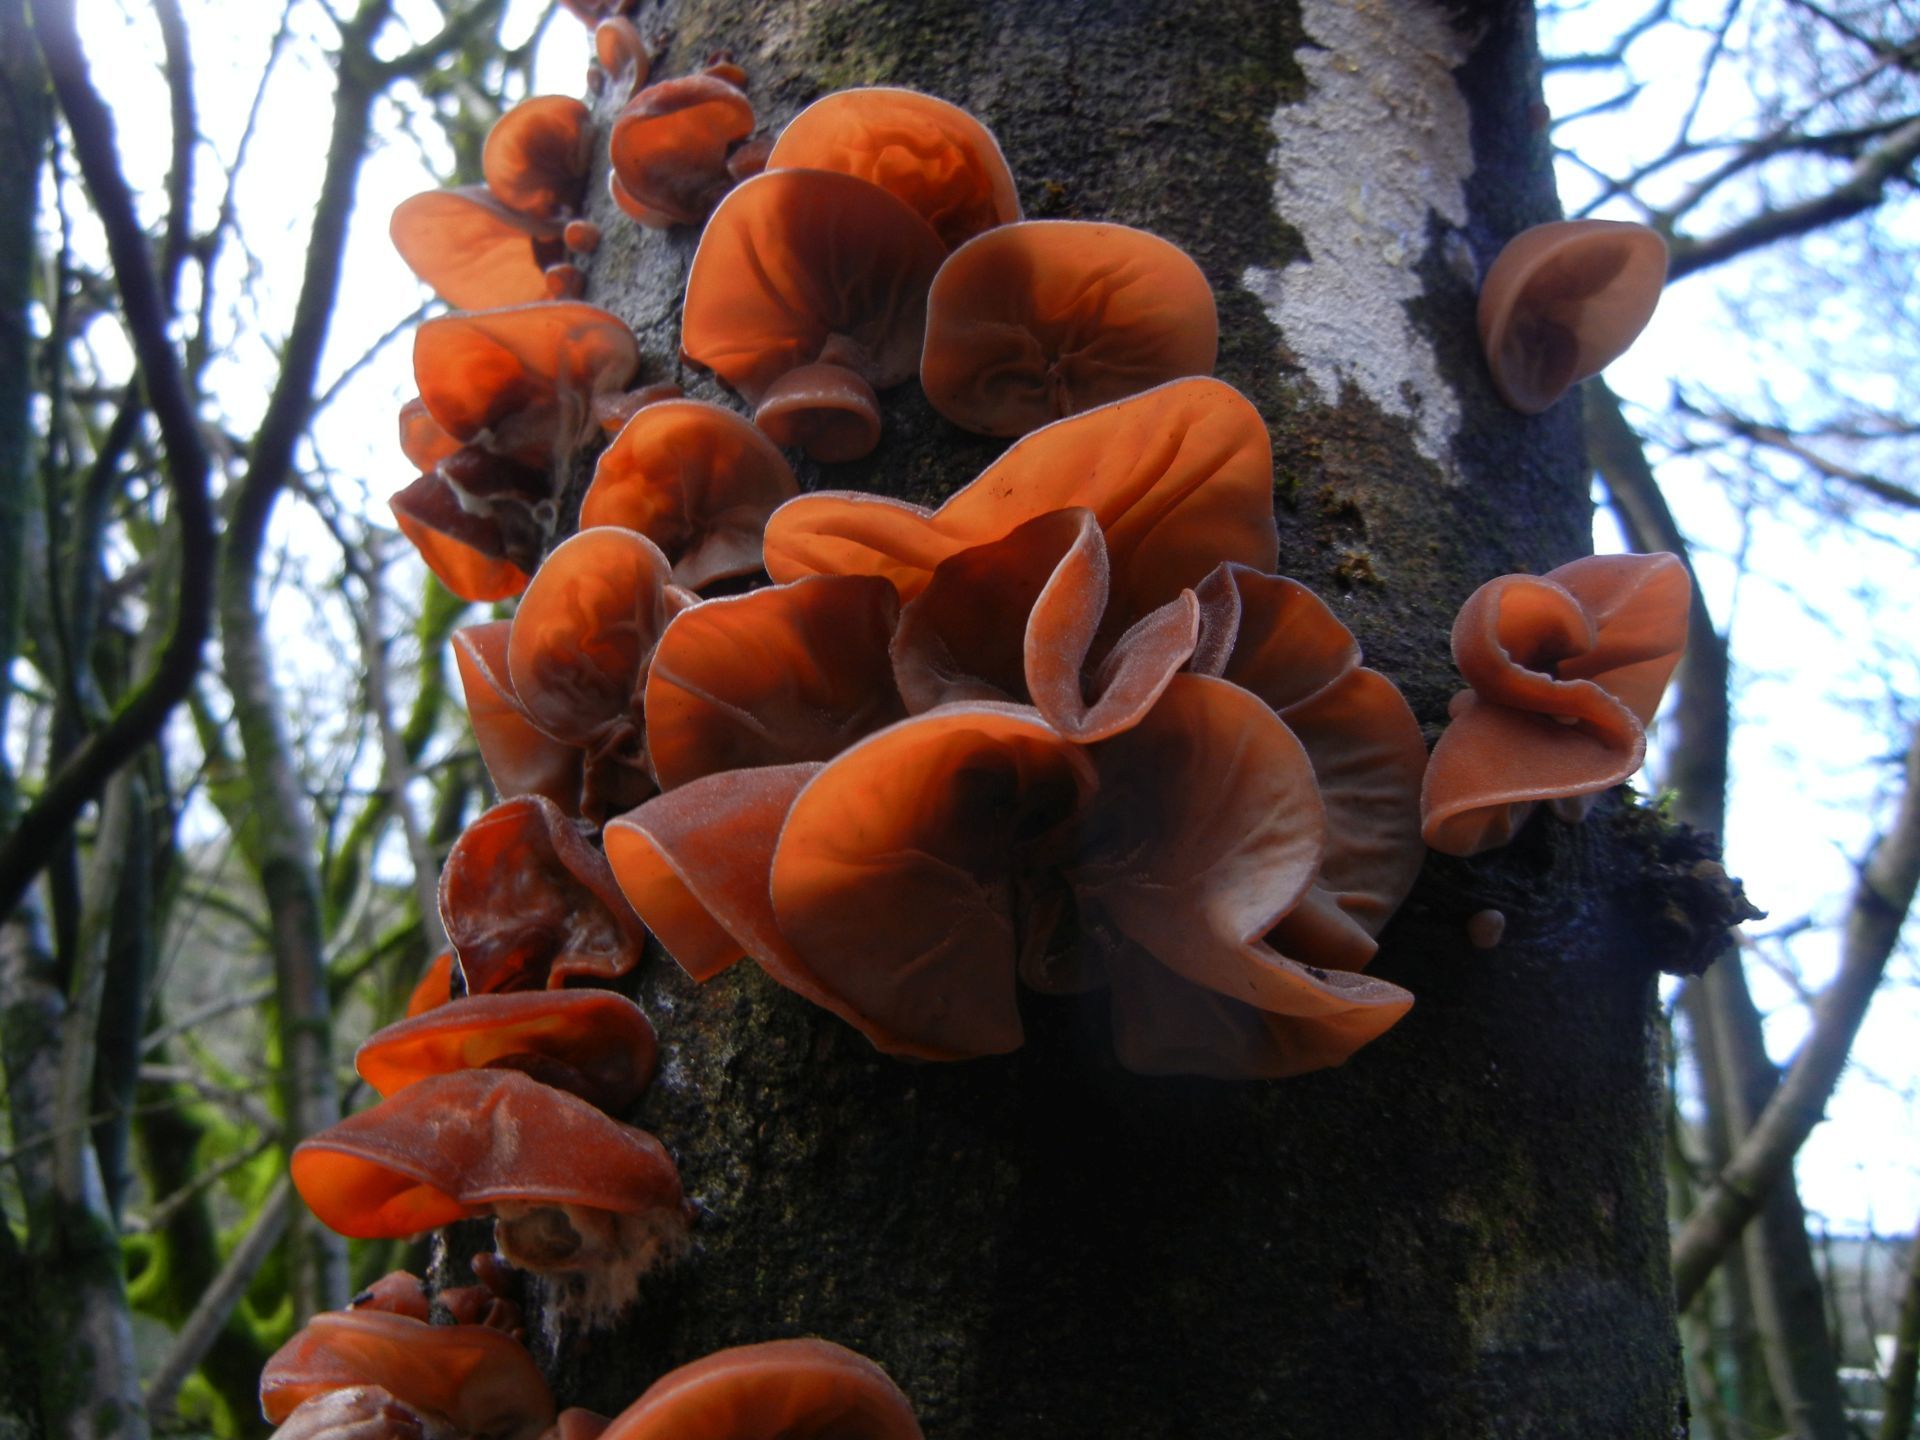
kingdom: Fungi
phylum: Basidiomycota
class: Agaricomycetes
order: Auriculariales
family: Auriculariaceae
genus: Auricularia
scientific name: Auricularia auricula-judae
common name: Jelly ear
